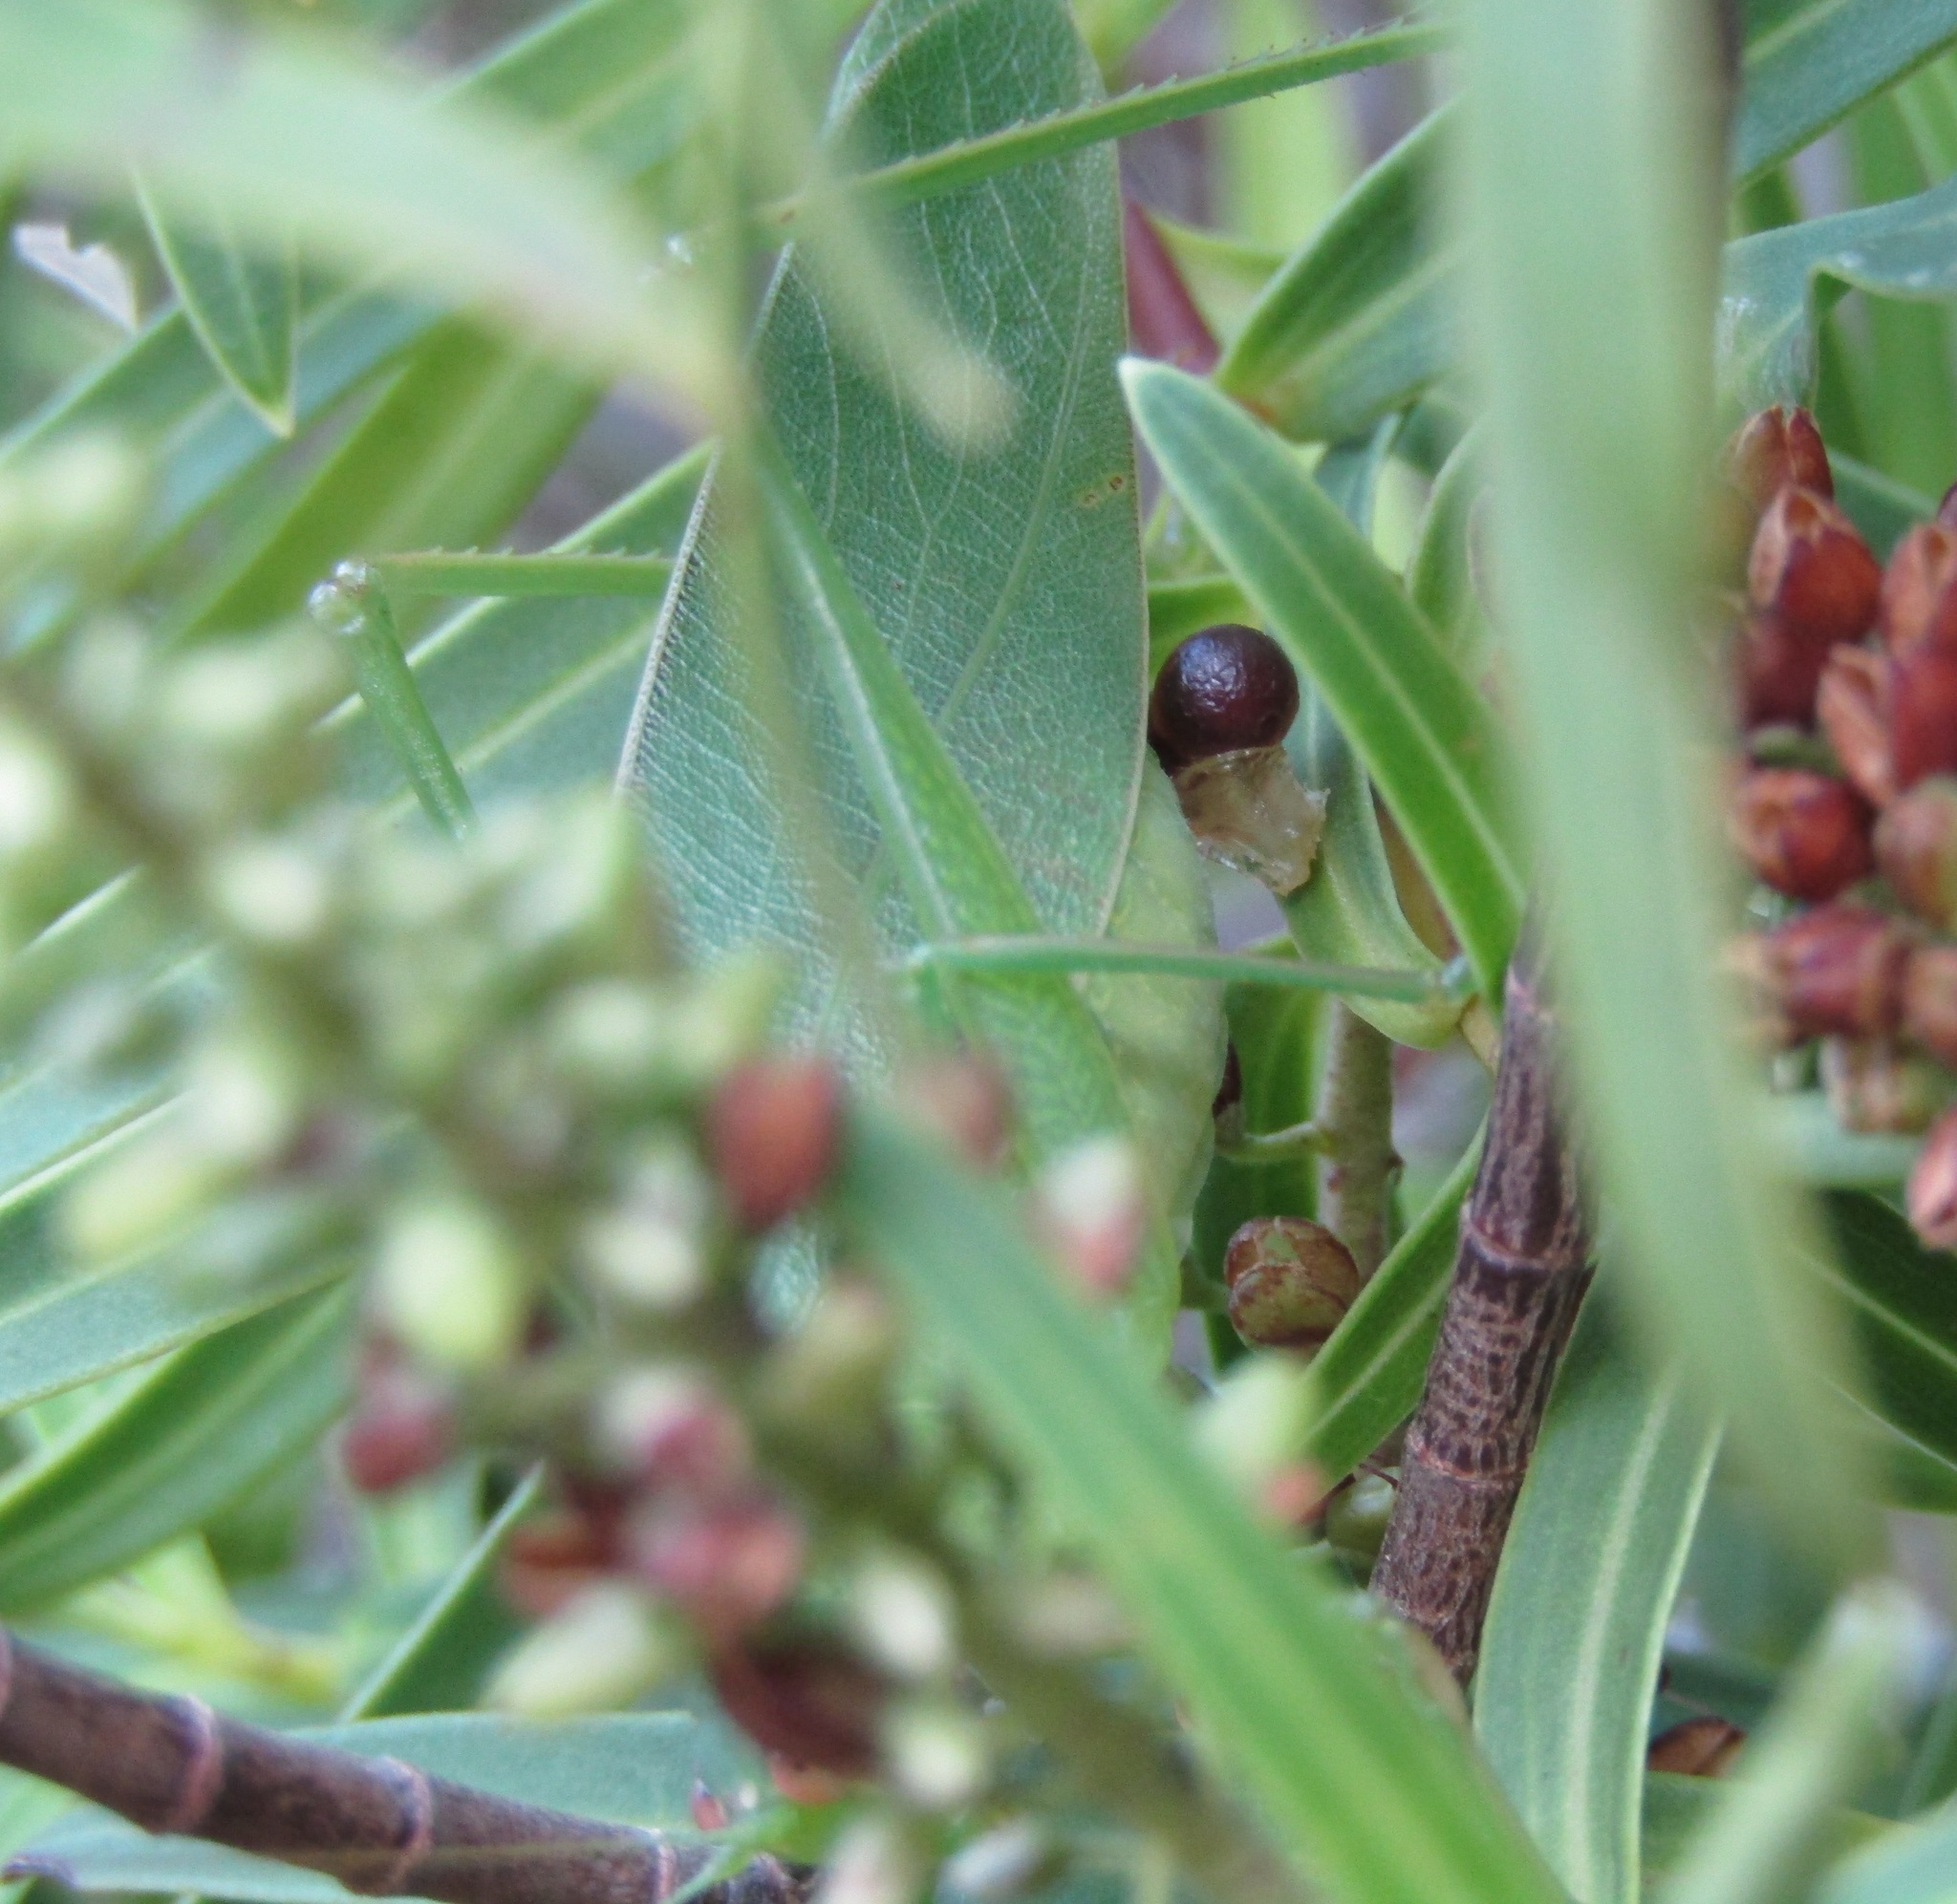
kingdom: Animalia
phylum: Arthropoda
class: Insecta
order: Orthoptera
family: Tettigoniidae
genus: Caedicia
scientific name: Caedicia simplex
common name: Common garden katydid
